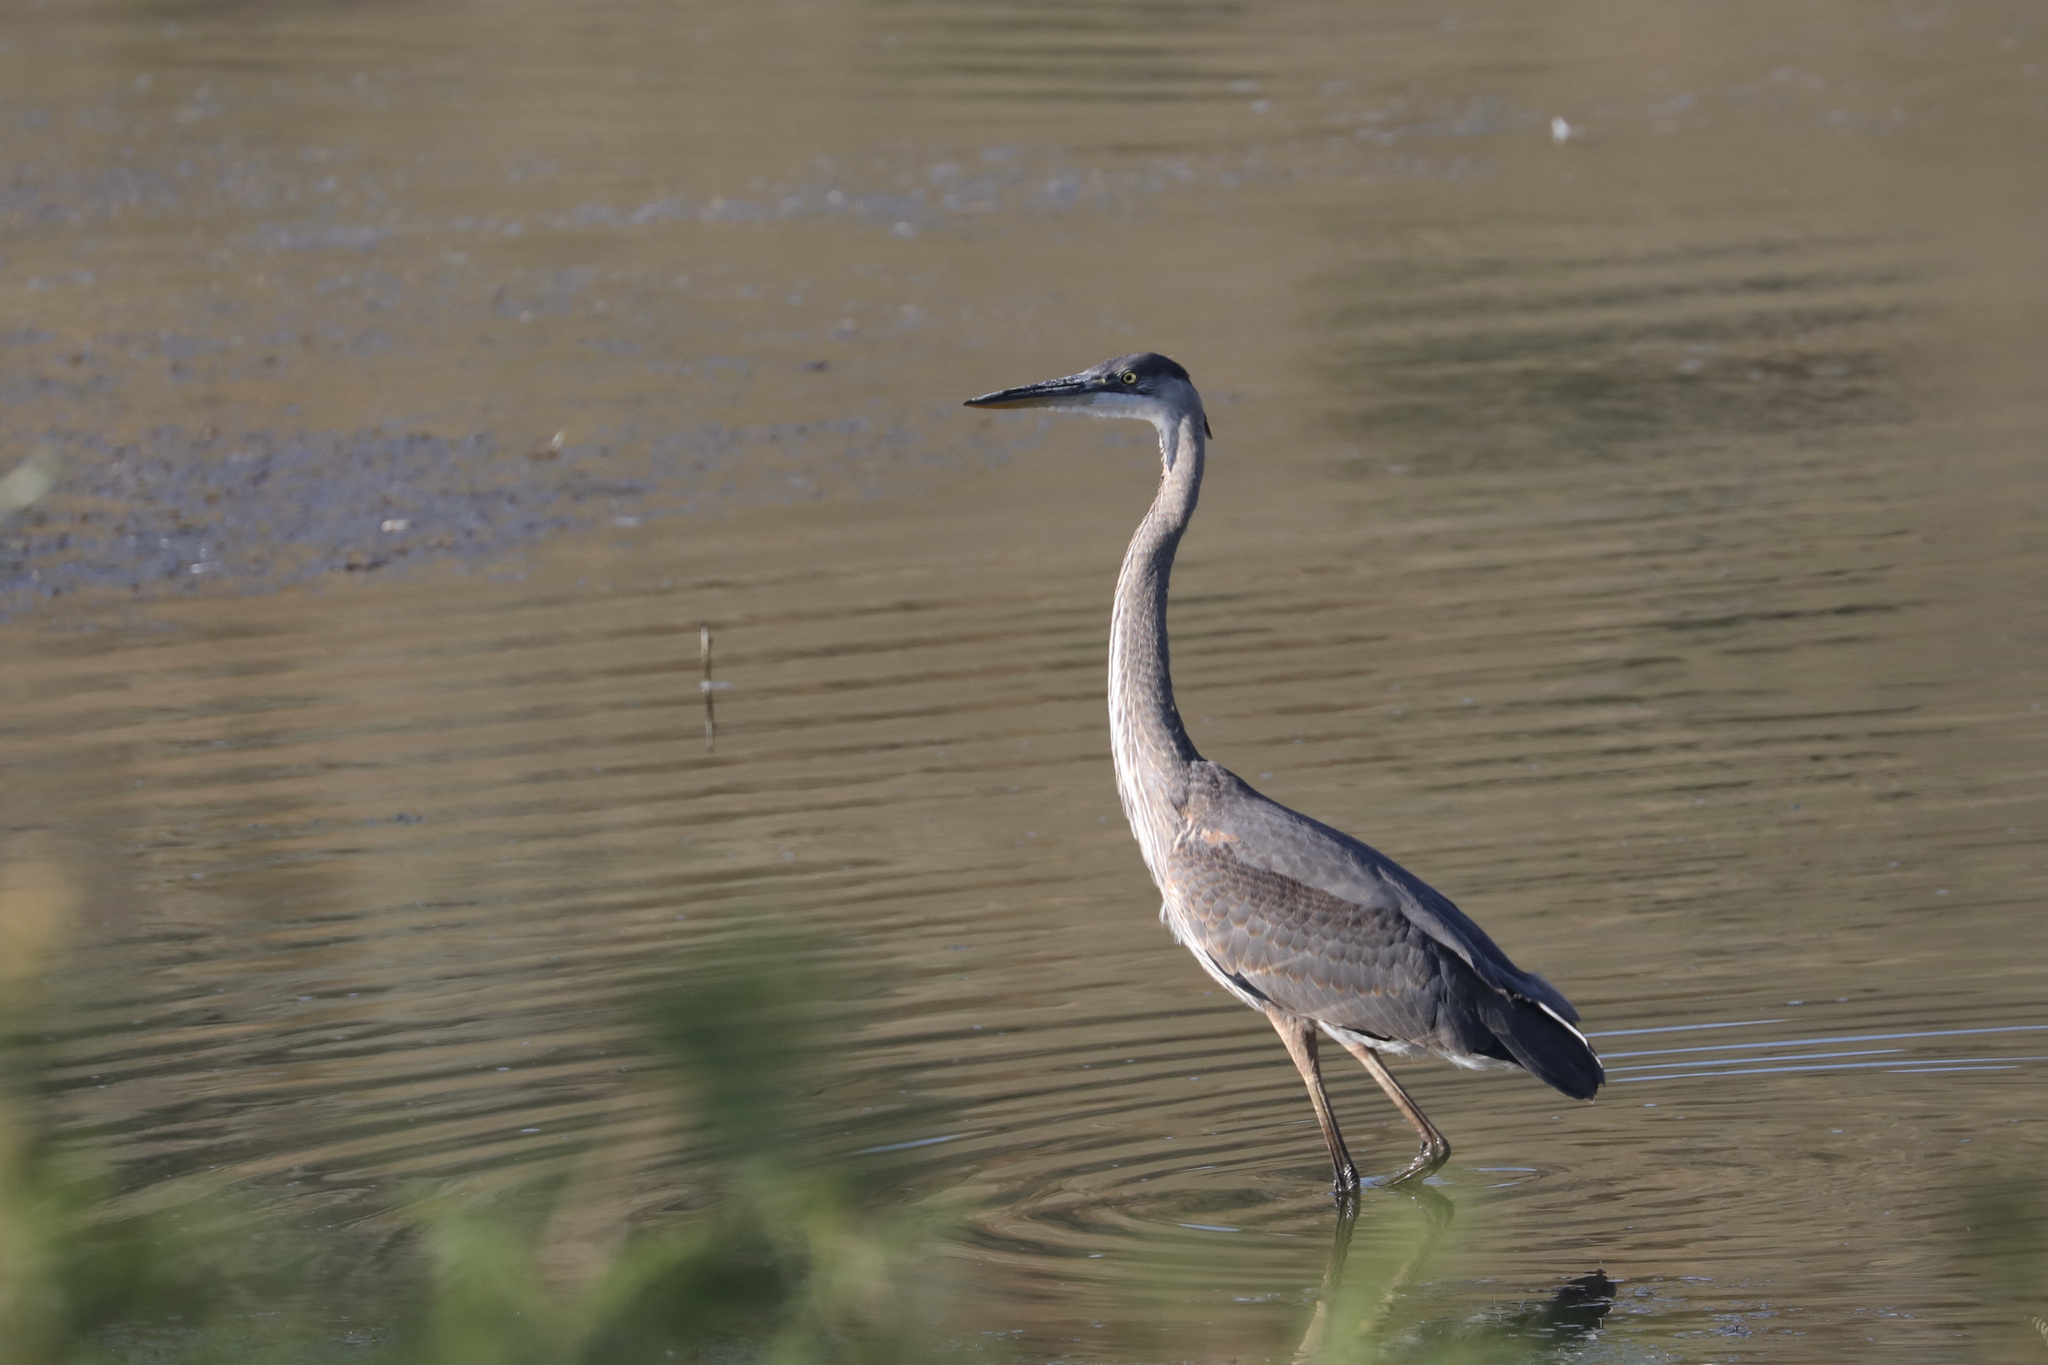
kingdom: Animalia
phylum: Chordata
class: Aves
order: Pelecaniformes
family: Ardeidae
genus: Ardea
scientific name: Ardea herodias
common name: Great blue heron
